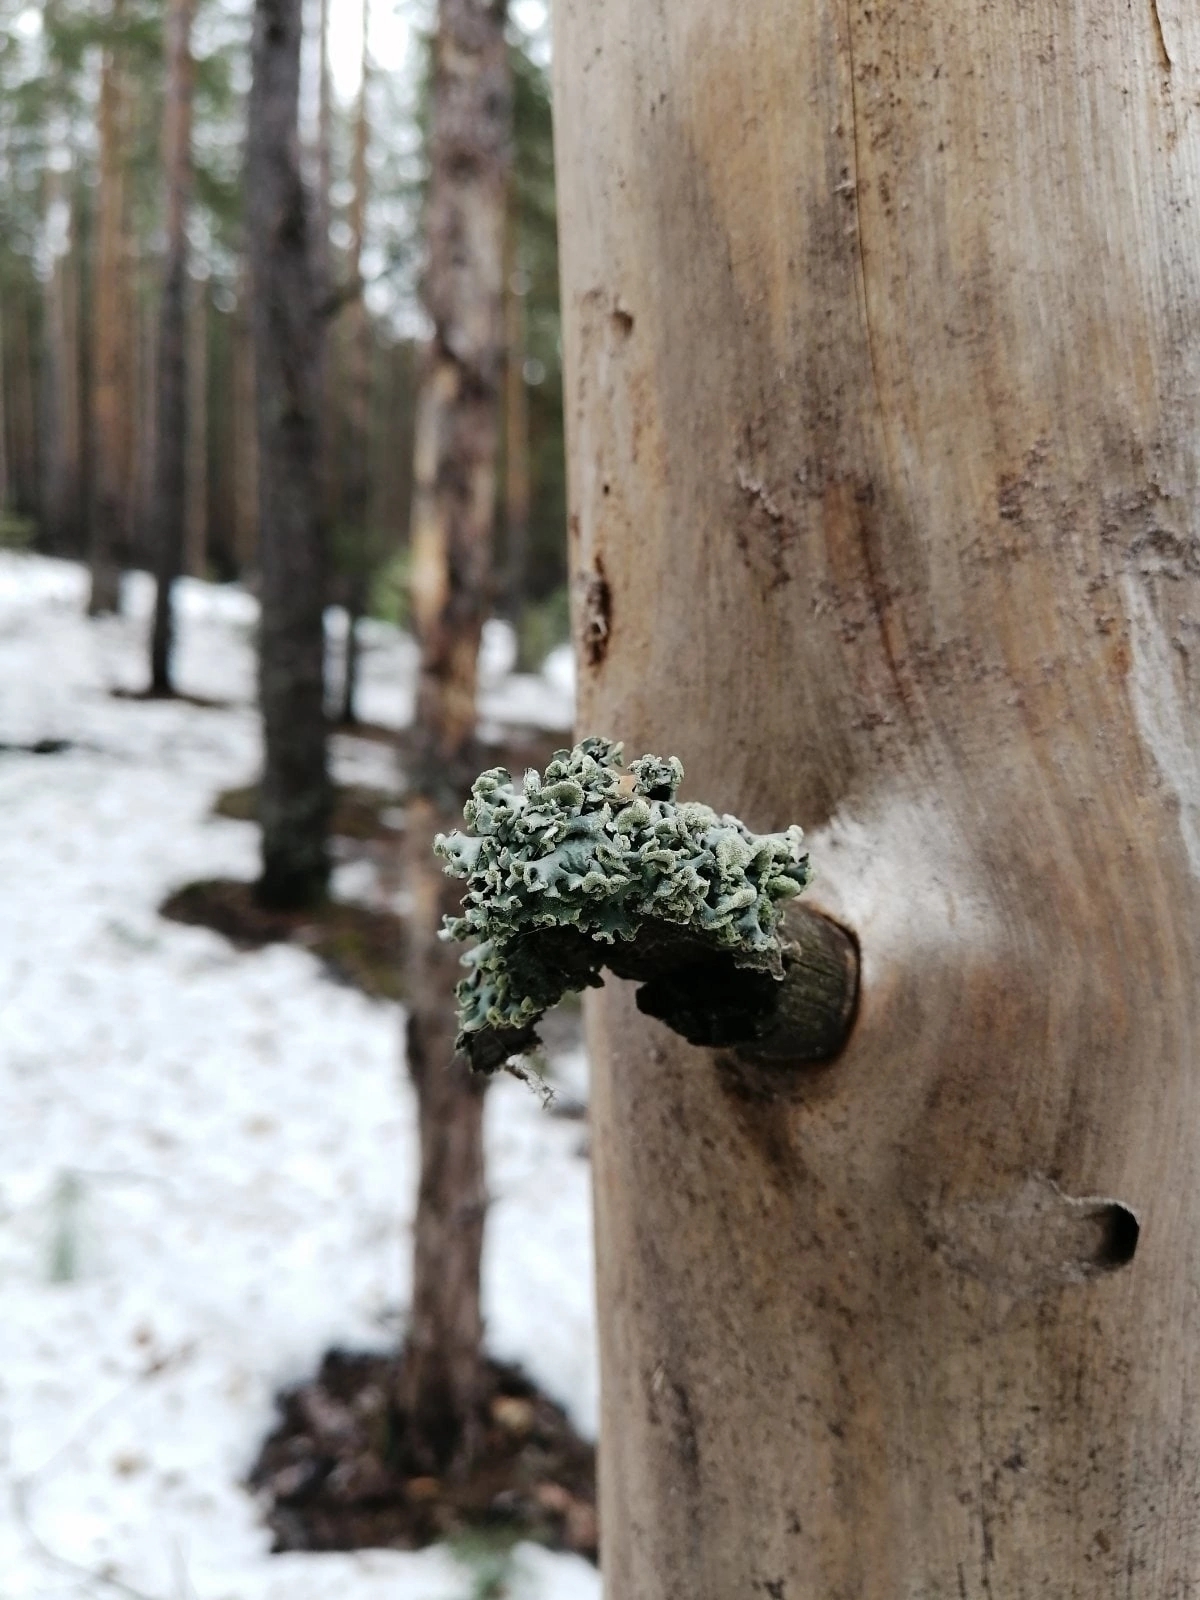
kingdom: Fungi
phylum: Ascomycota
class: Lecanoromycetes
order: Lecanorales
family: Parmeliaceae
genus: Hypogymnia
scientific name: Hypogymnia physodes
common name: Dark crottle
